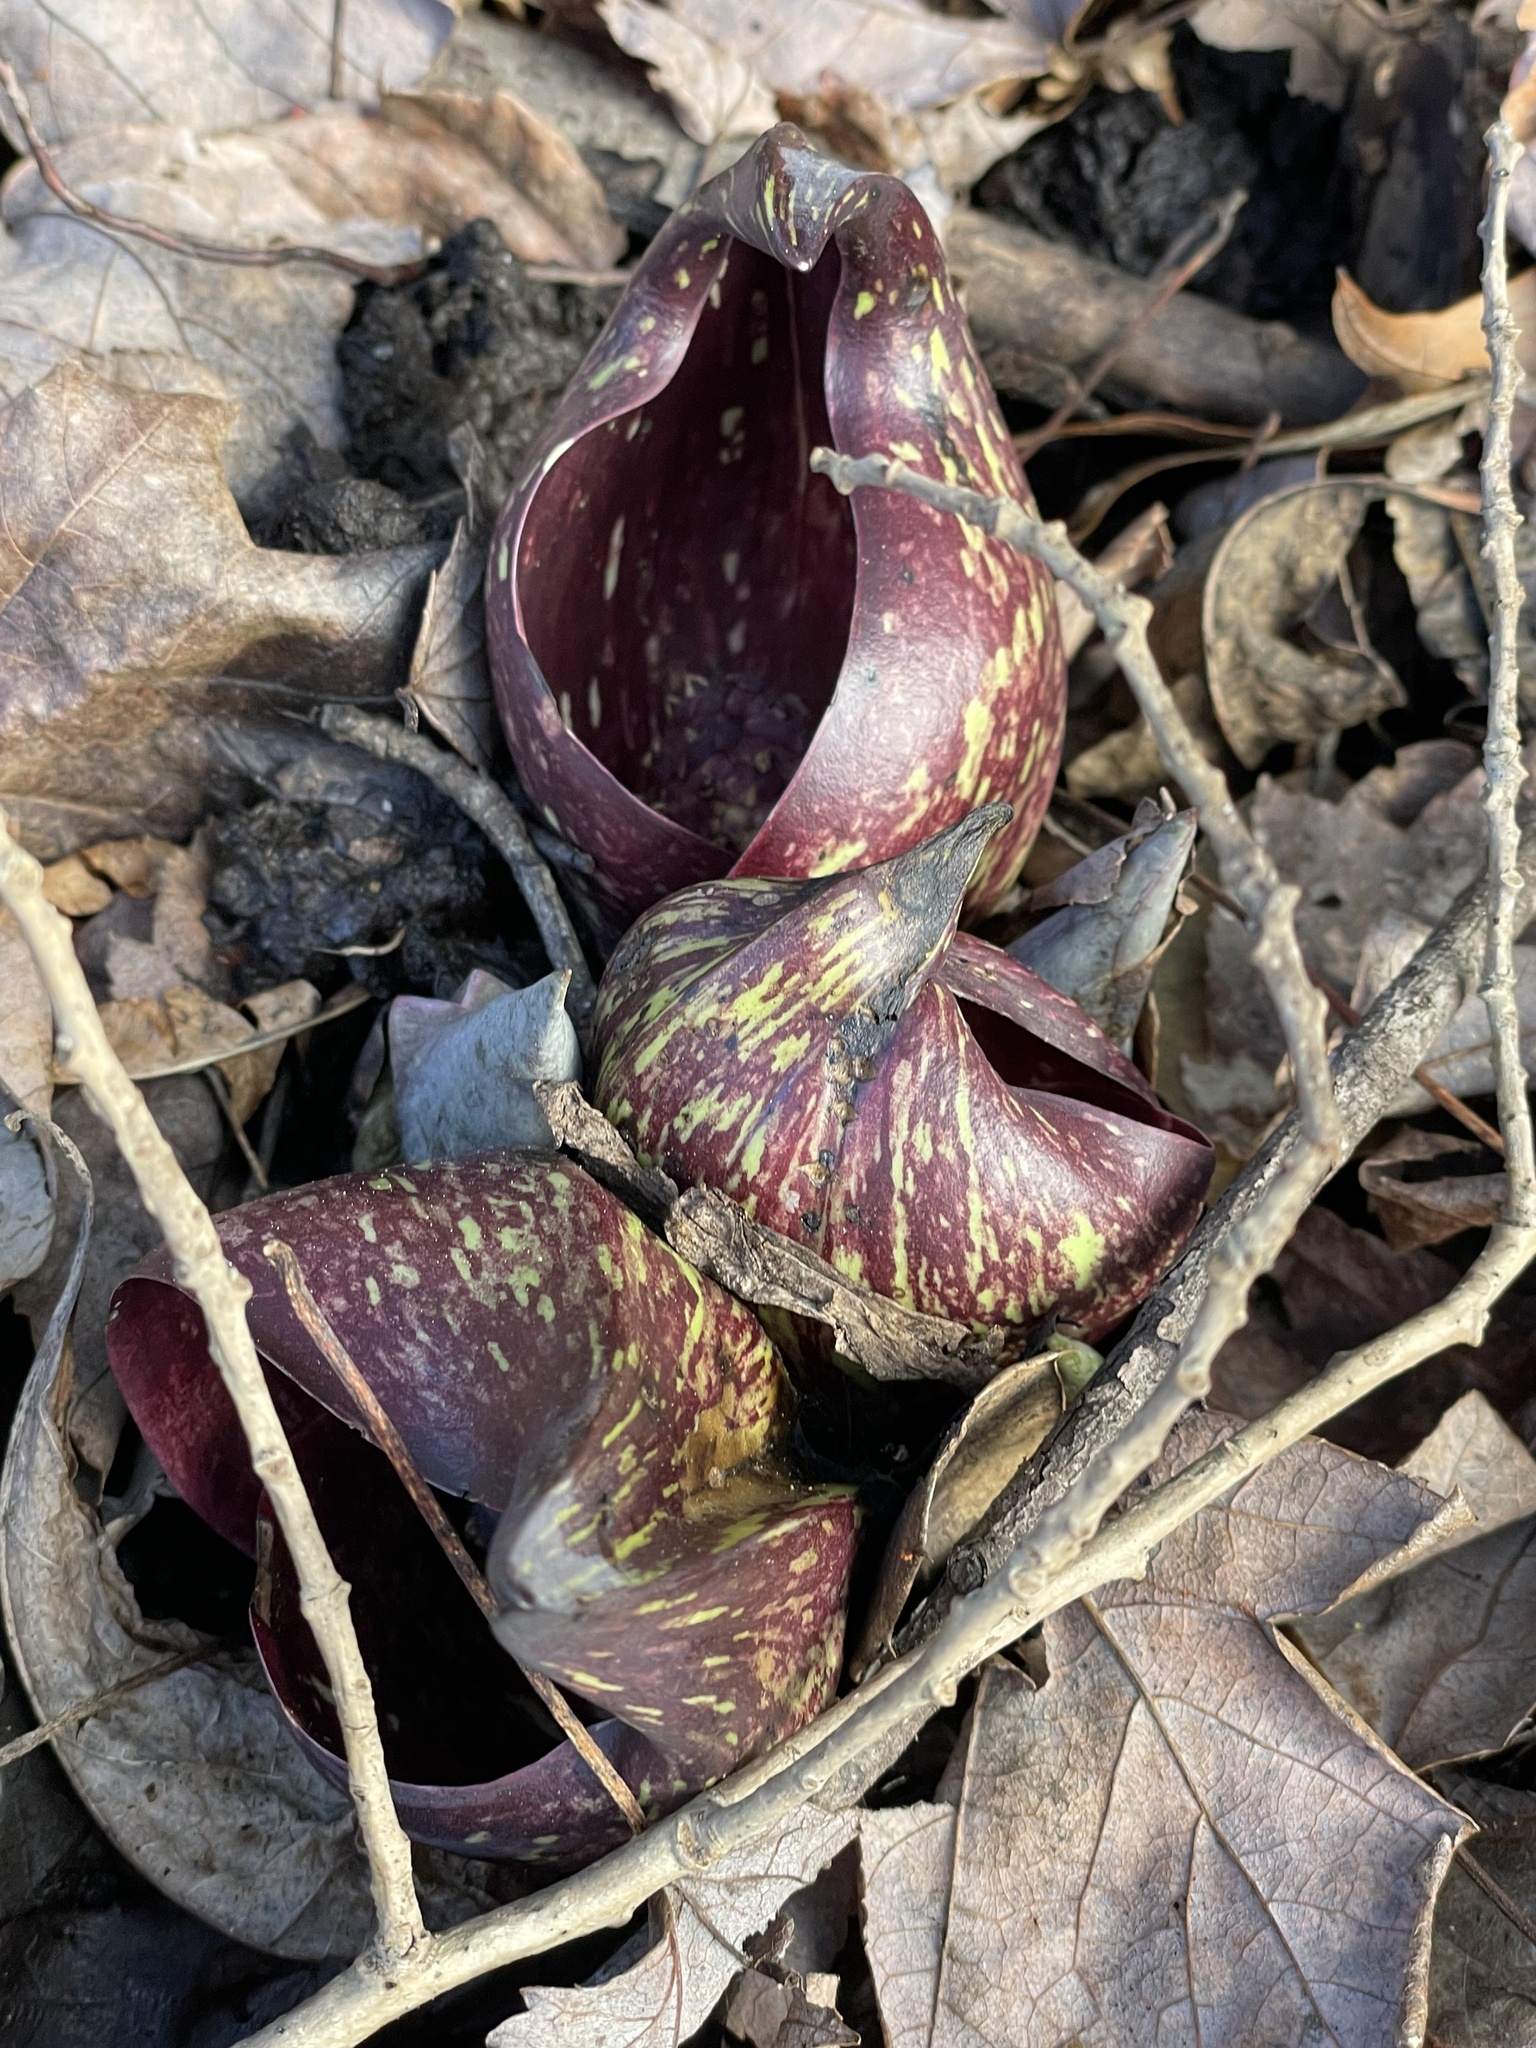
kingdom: Plantae
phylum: Tracheophyta
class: Liliopsida
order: Alismatales
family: Araceae
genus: Symplocarpus
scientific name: Symplocarpus foetidus
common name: Eastern skunk cabbage
